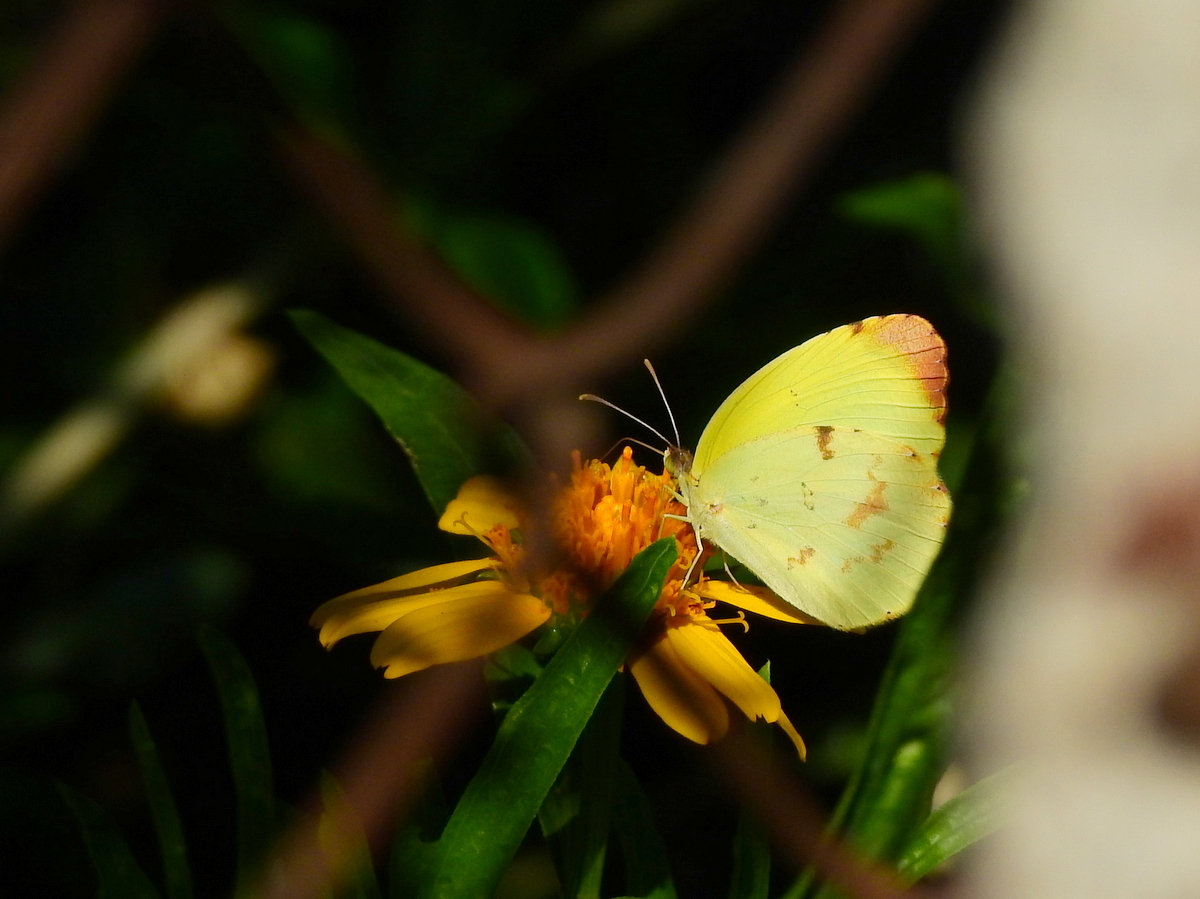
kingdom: Animalia
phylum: Arthropoda
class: Insecta
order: Lepidoptera
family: Pieridae
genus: Teriocolias
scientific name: Teriocolias
